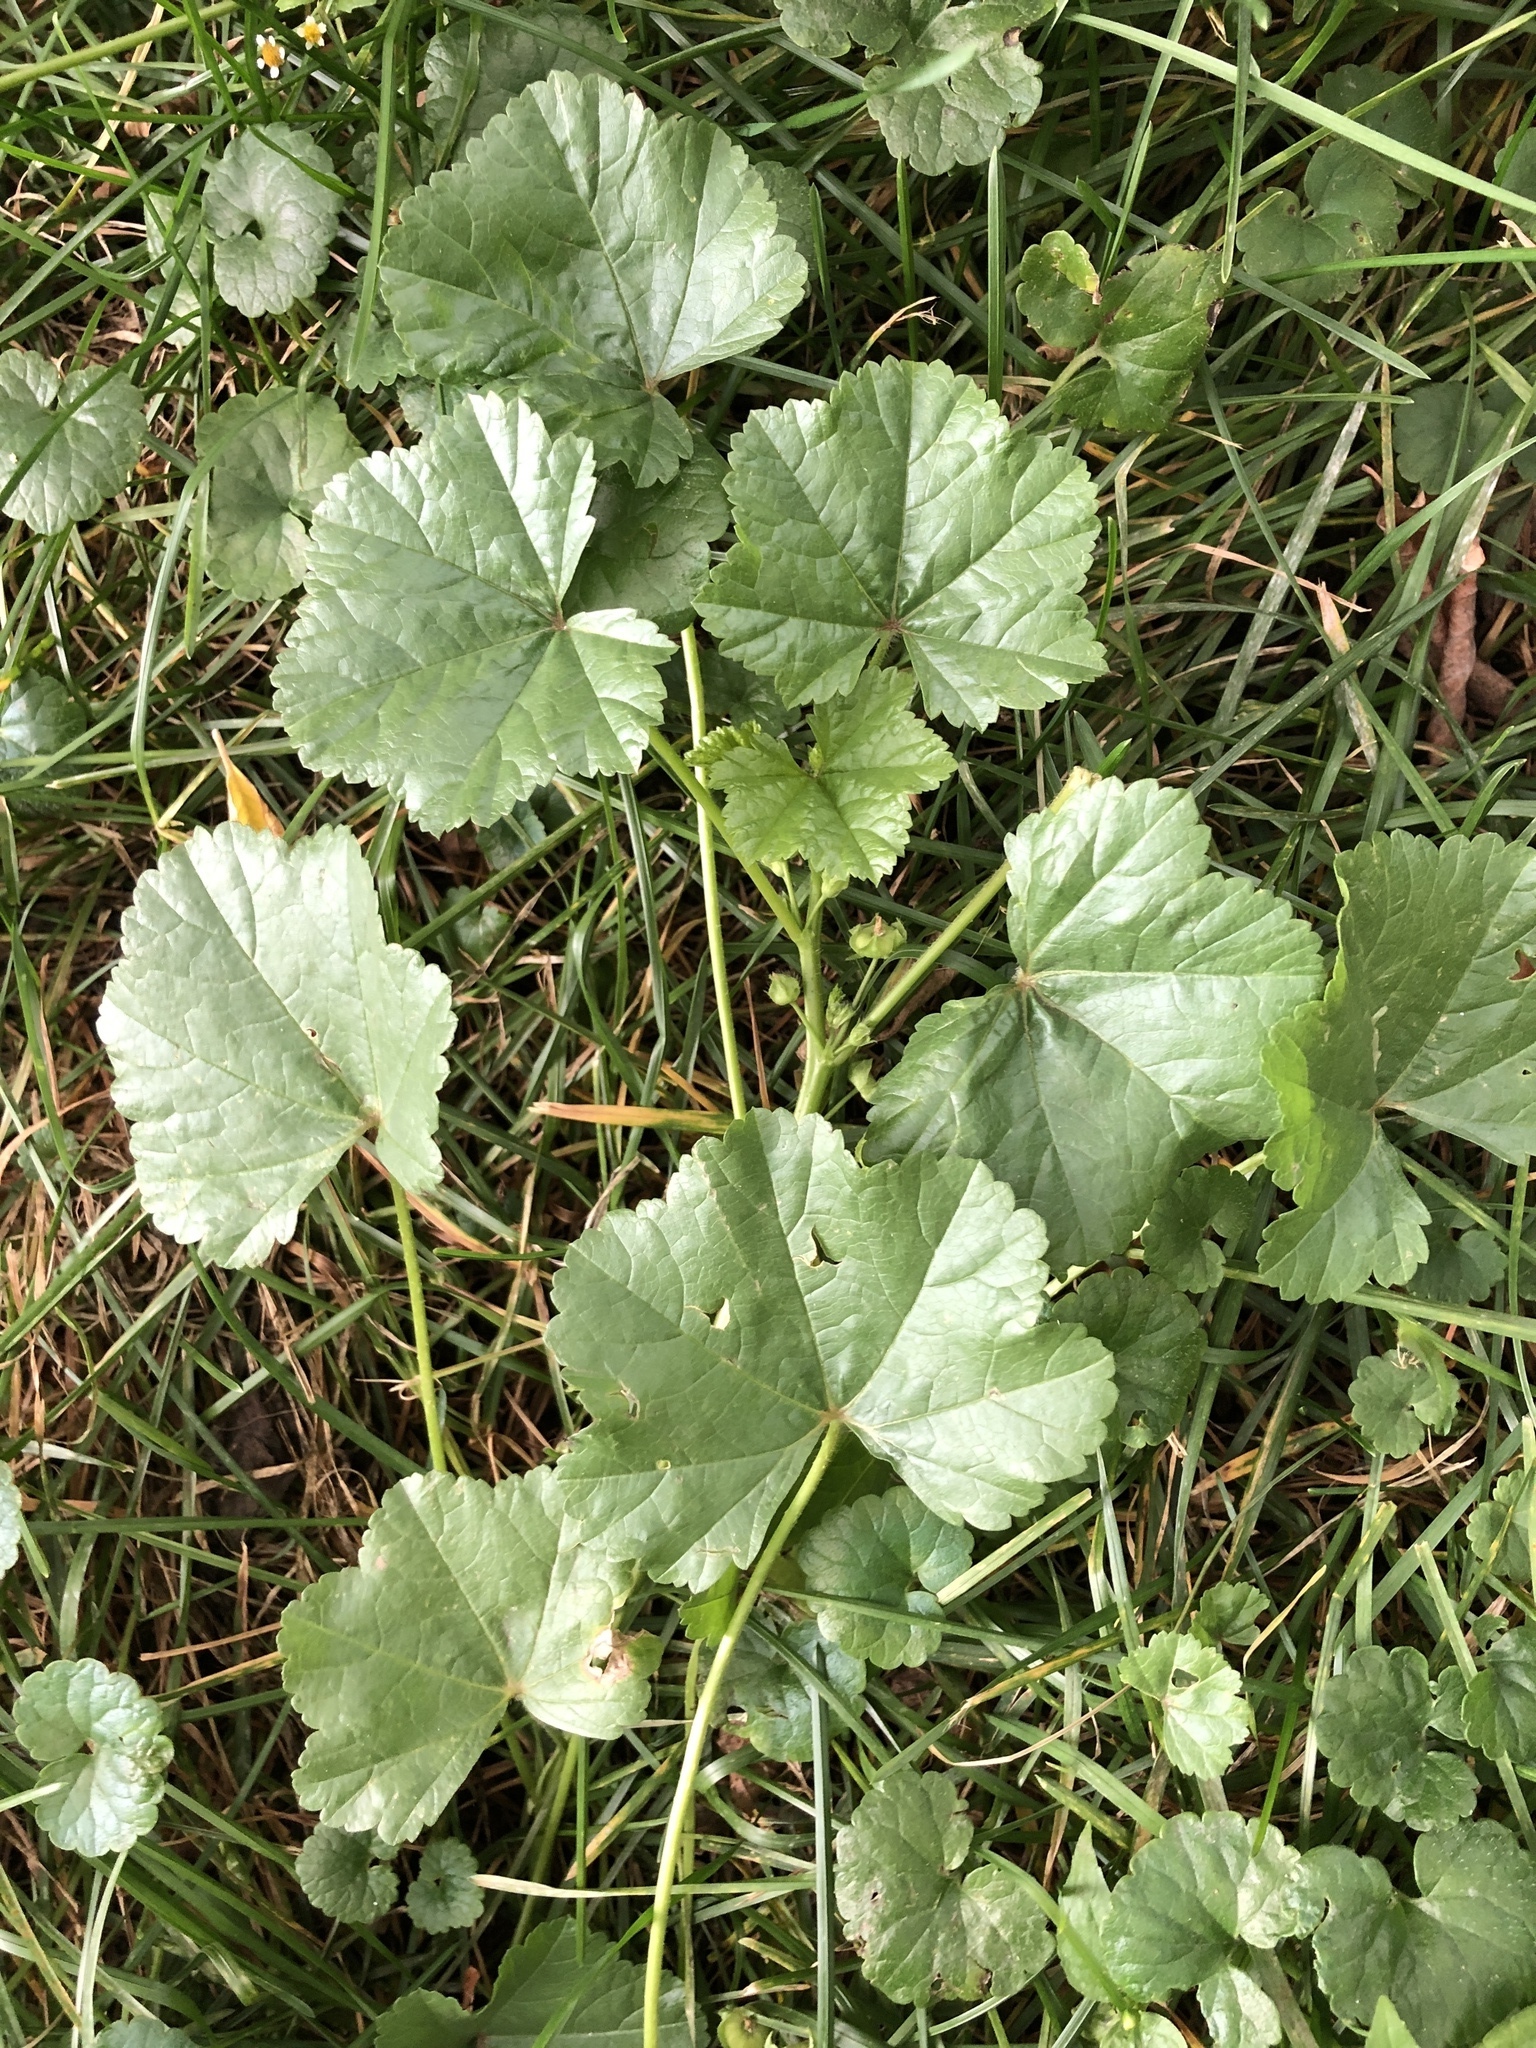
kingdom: Plantae
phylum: Tracheophyta
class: Magnoliopsida
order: Malvales
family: Malvaceae
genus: Malva
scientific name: Malva pusilla
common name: Small mallow
